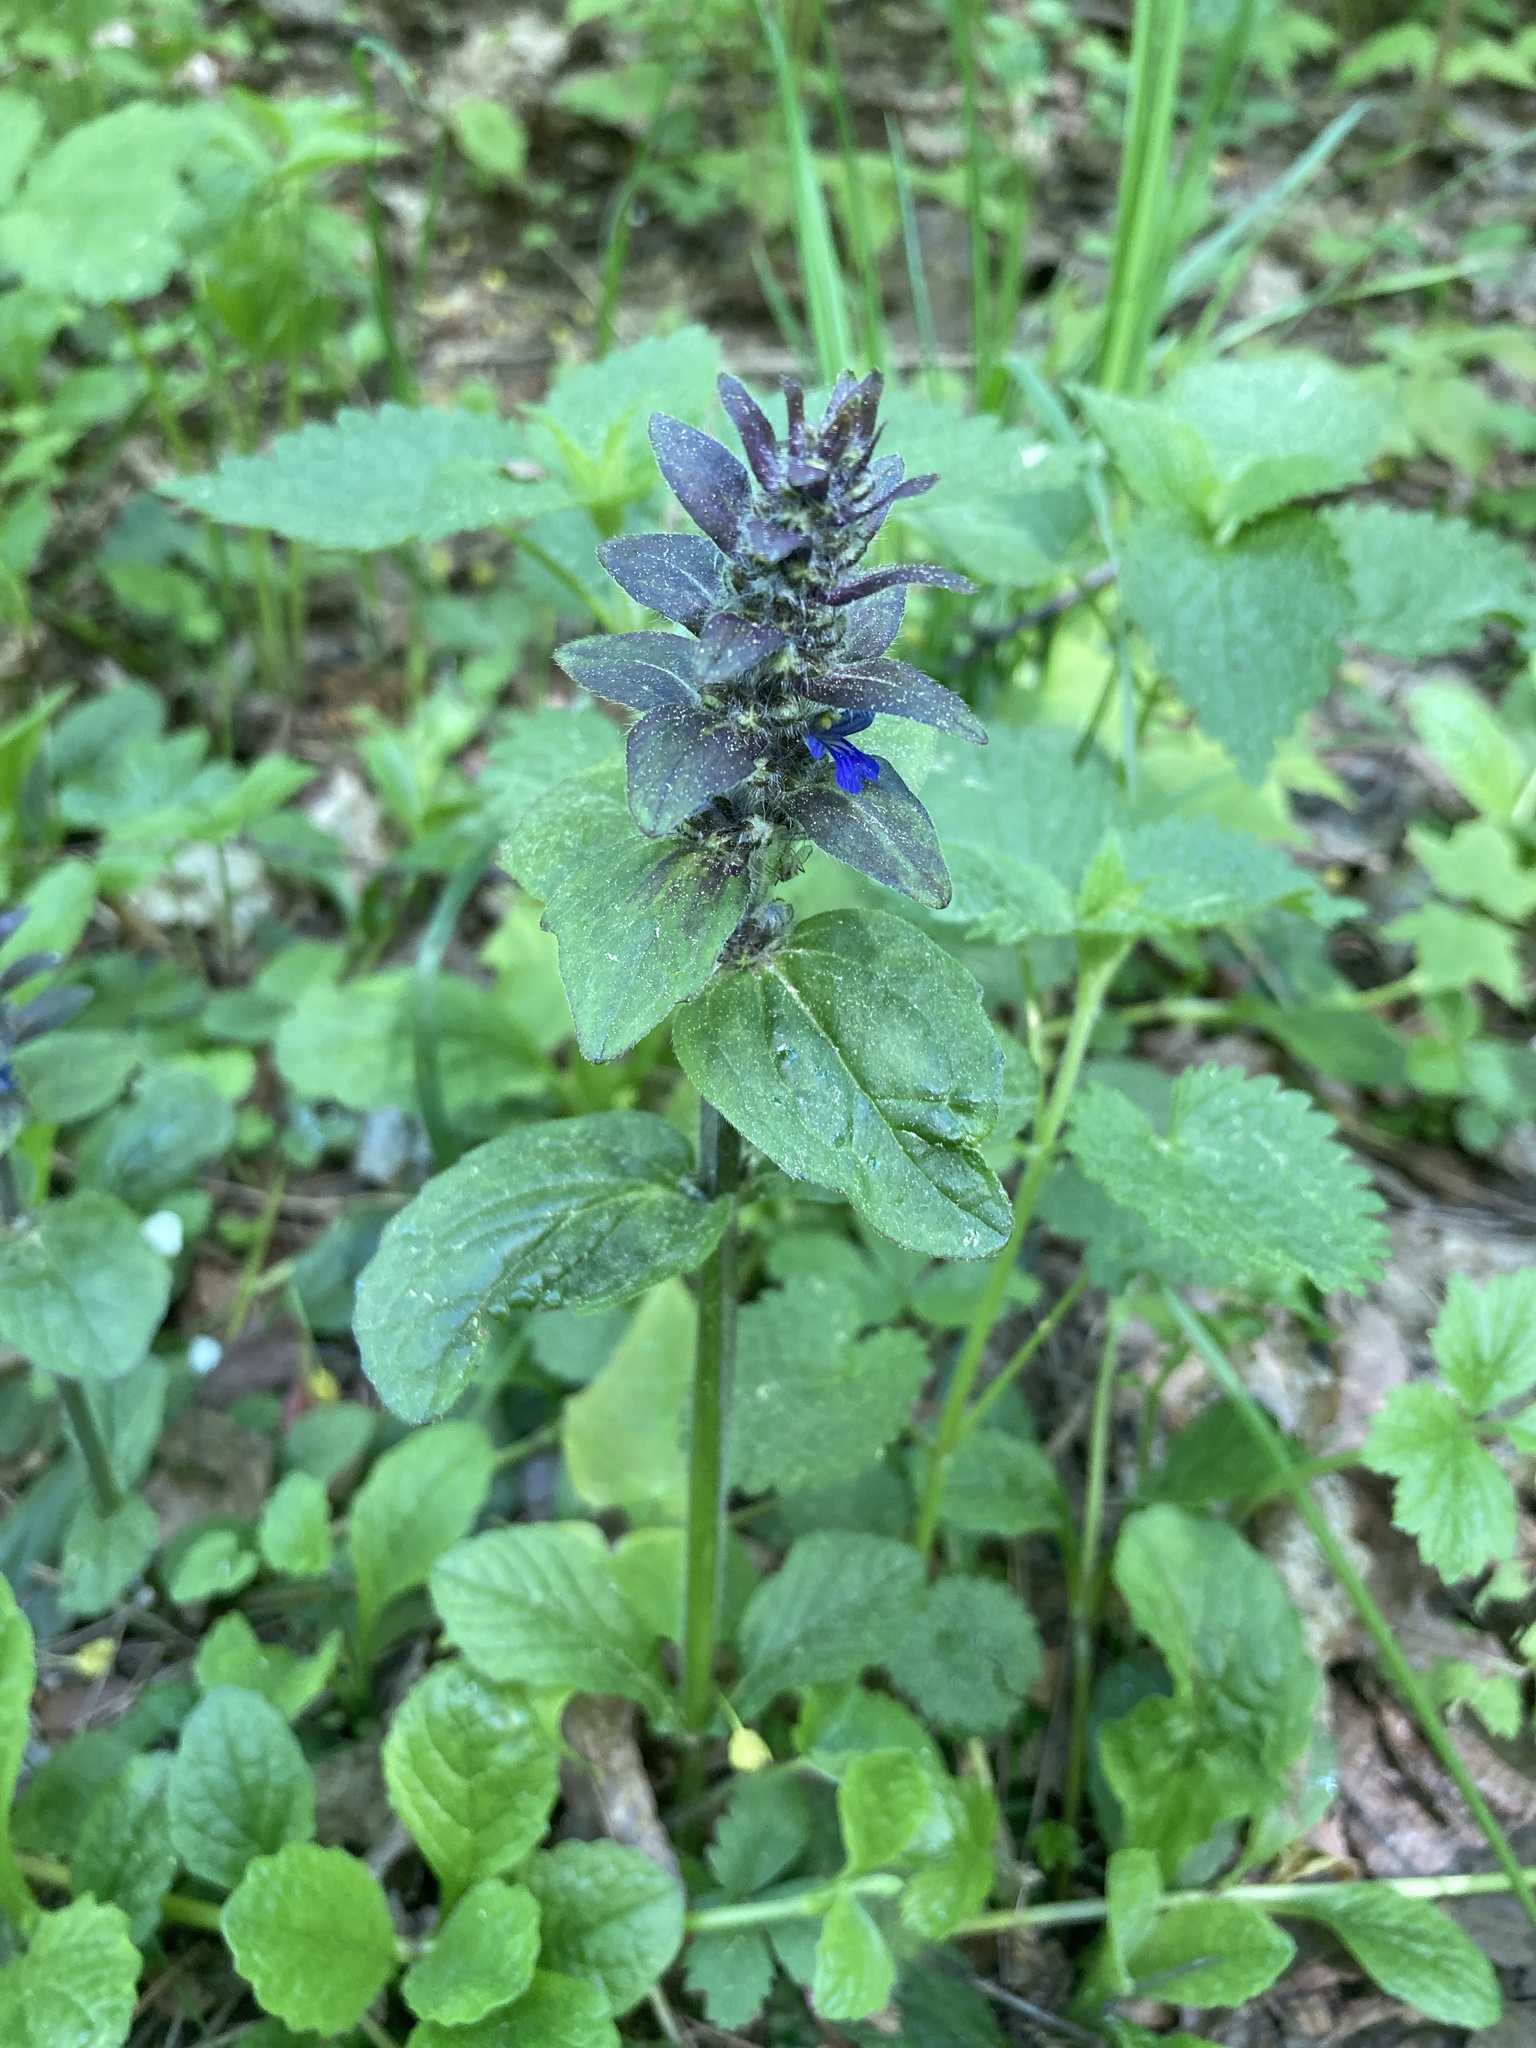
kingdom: Plantae
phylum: Tracheophyta
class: Magnoliopsida
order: Lamiales
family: Lamiaceae
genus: Ajuga
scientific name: Ajuga reptans
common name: Bugle
